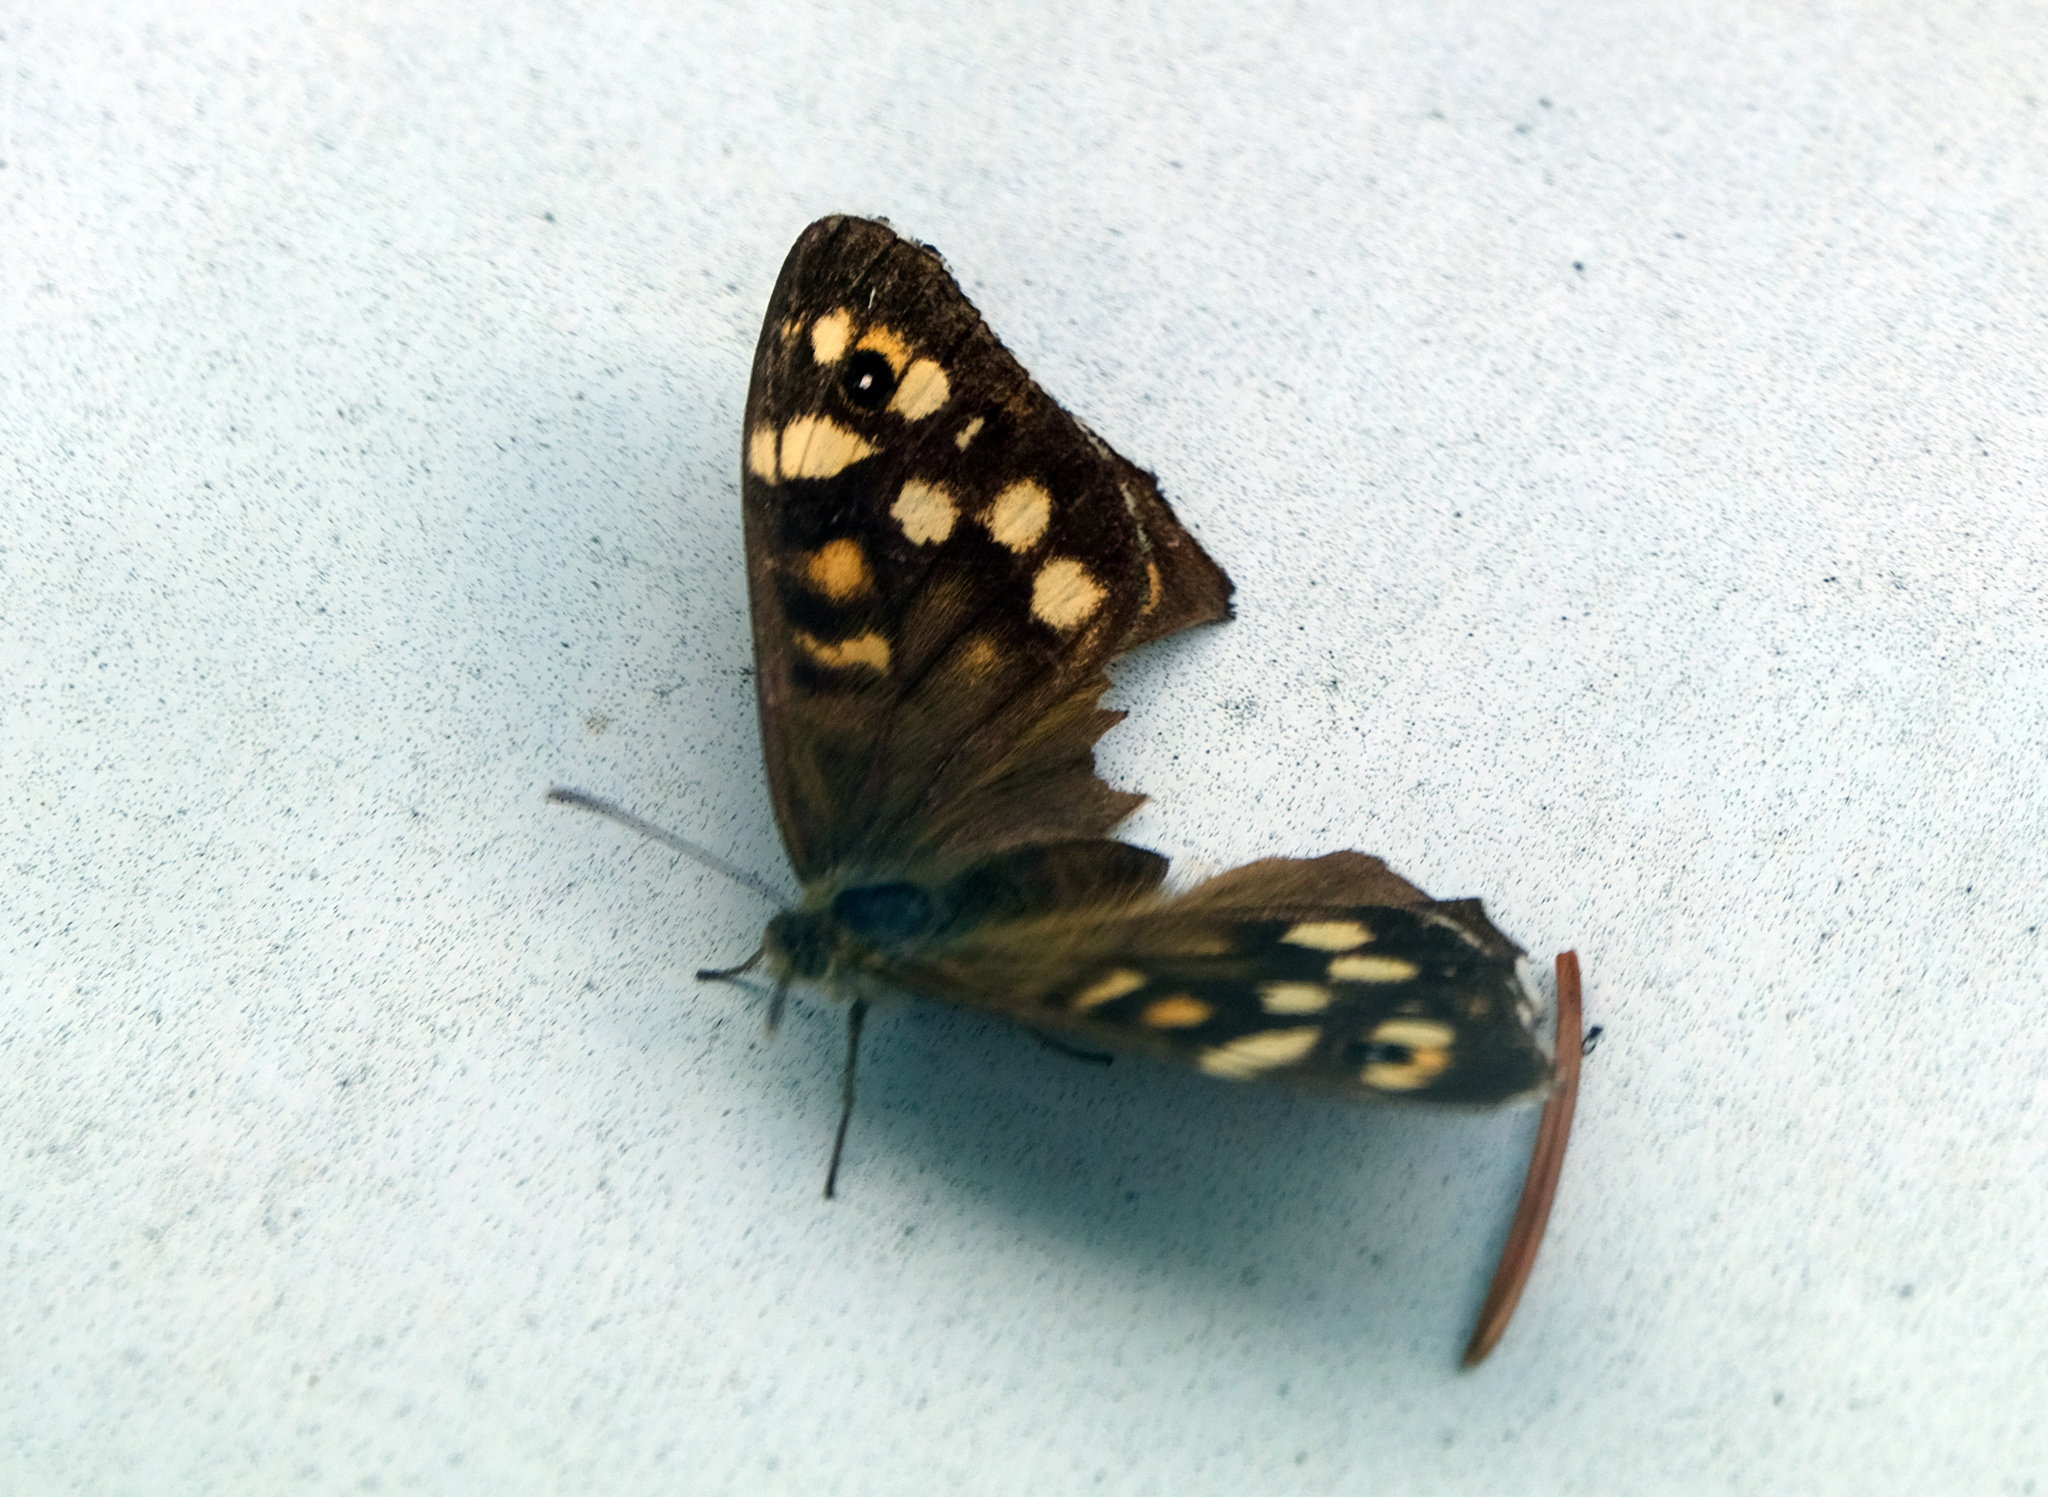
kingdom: Animalia
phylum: Arthropoda
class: Insecta
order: Lepidoptera
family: Nymphalidae
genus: Pararge
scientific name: Pararge aegeria
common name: Speckled wood
